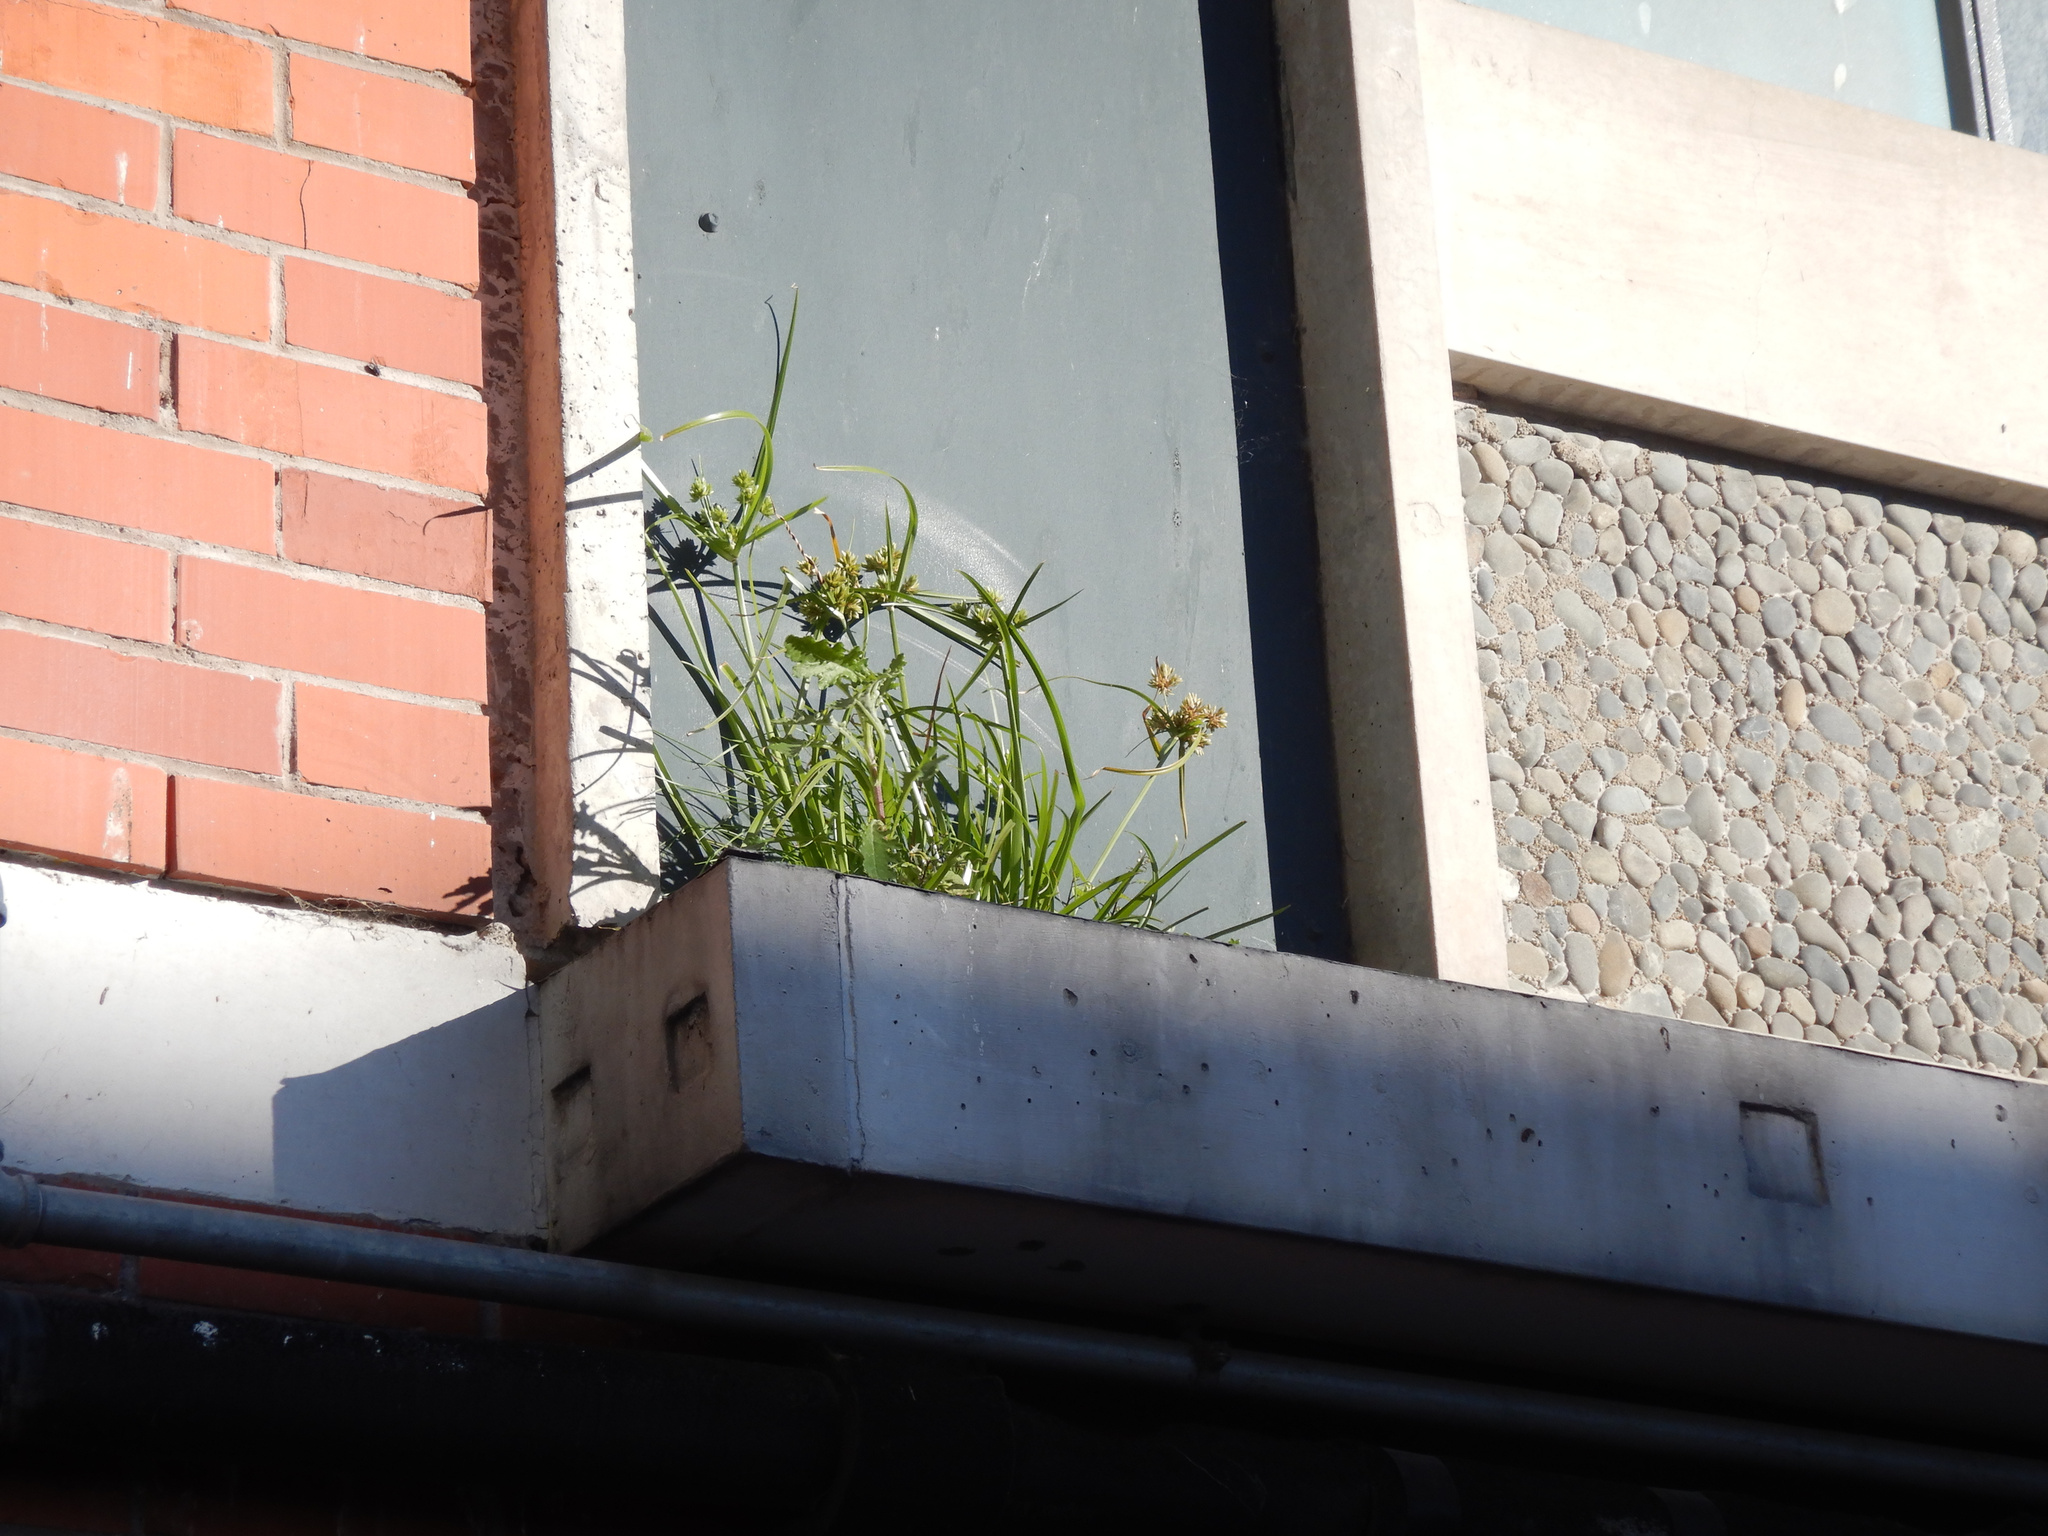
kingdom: Plantae
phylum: Tracheophyta
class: Liliopsida
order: Poales
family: Cyperaceae
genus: Cyperus
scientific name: Cyperus eragrostis
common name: Tall flatsedge
